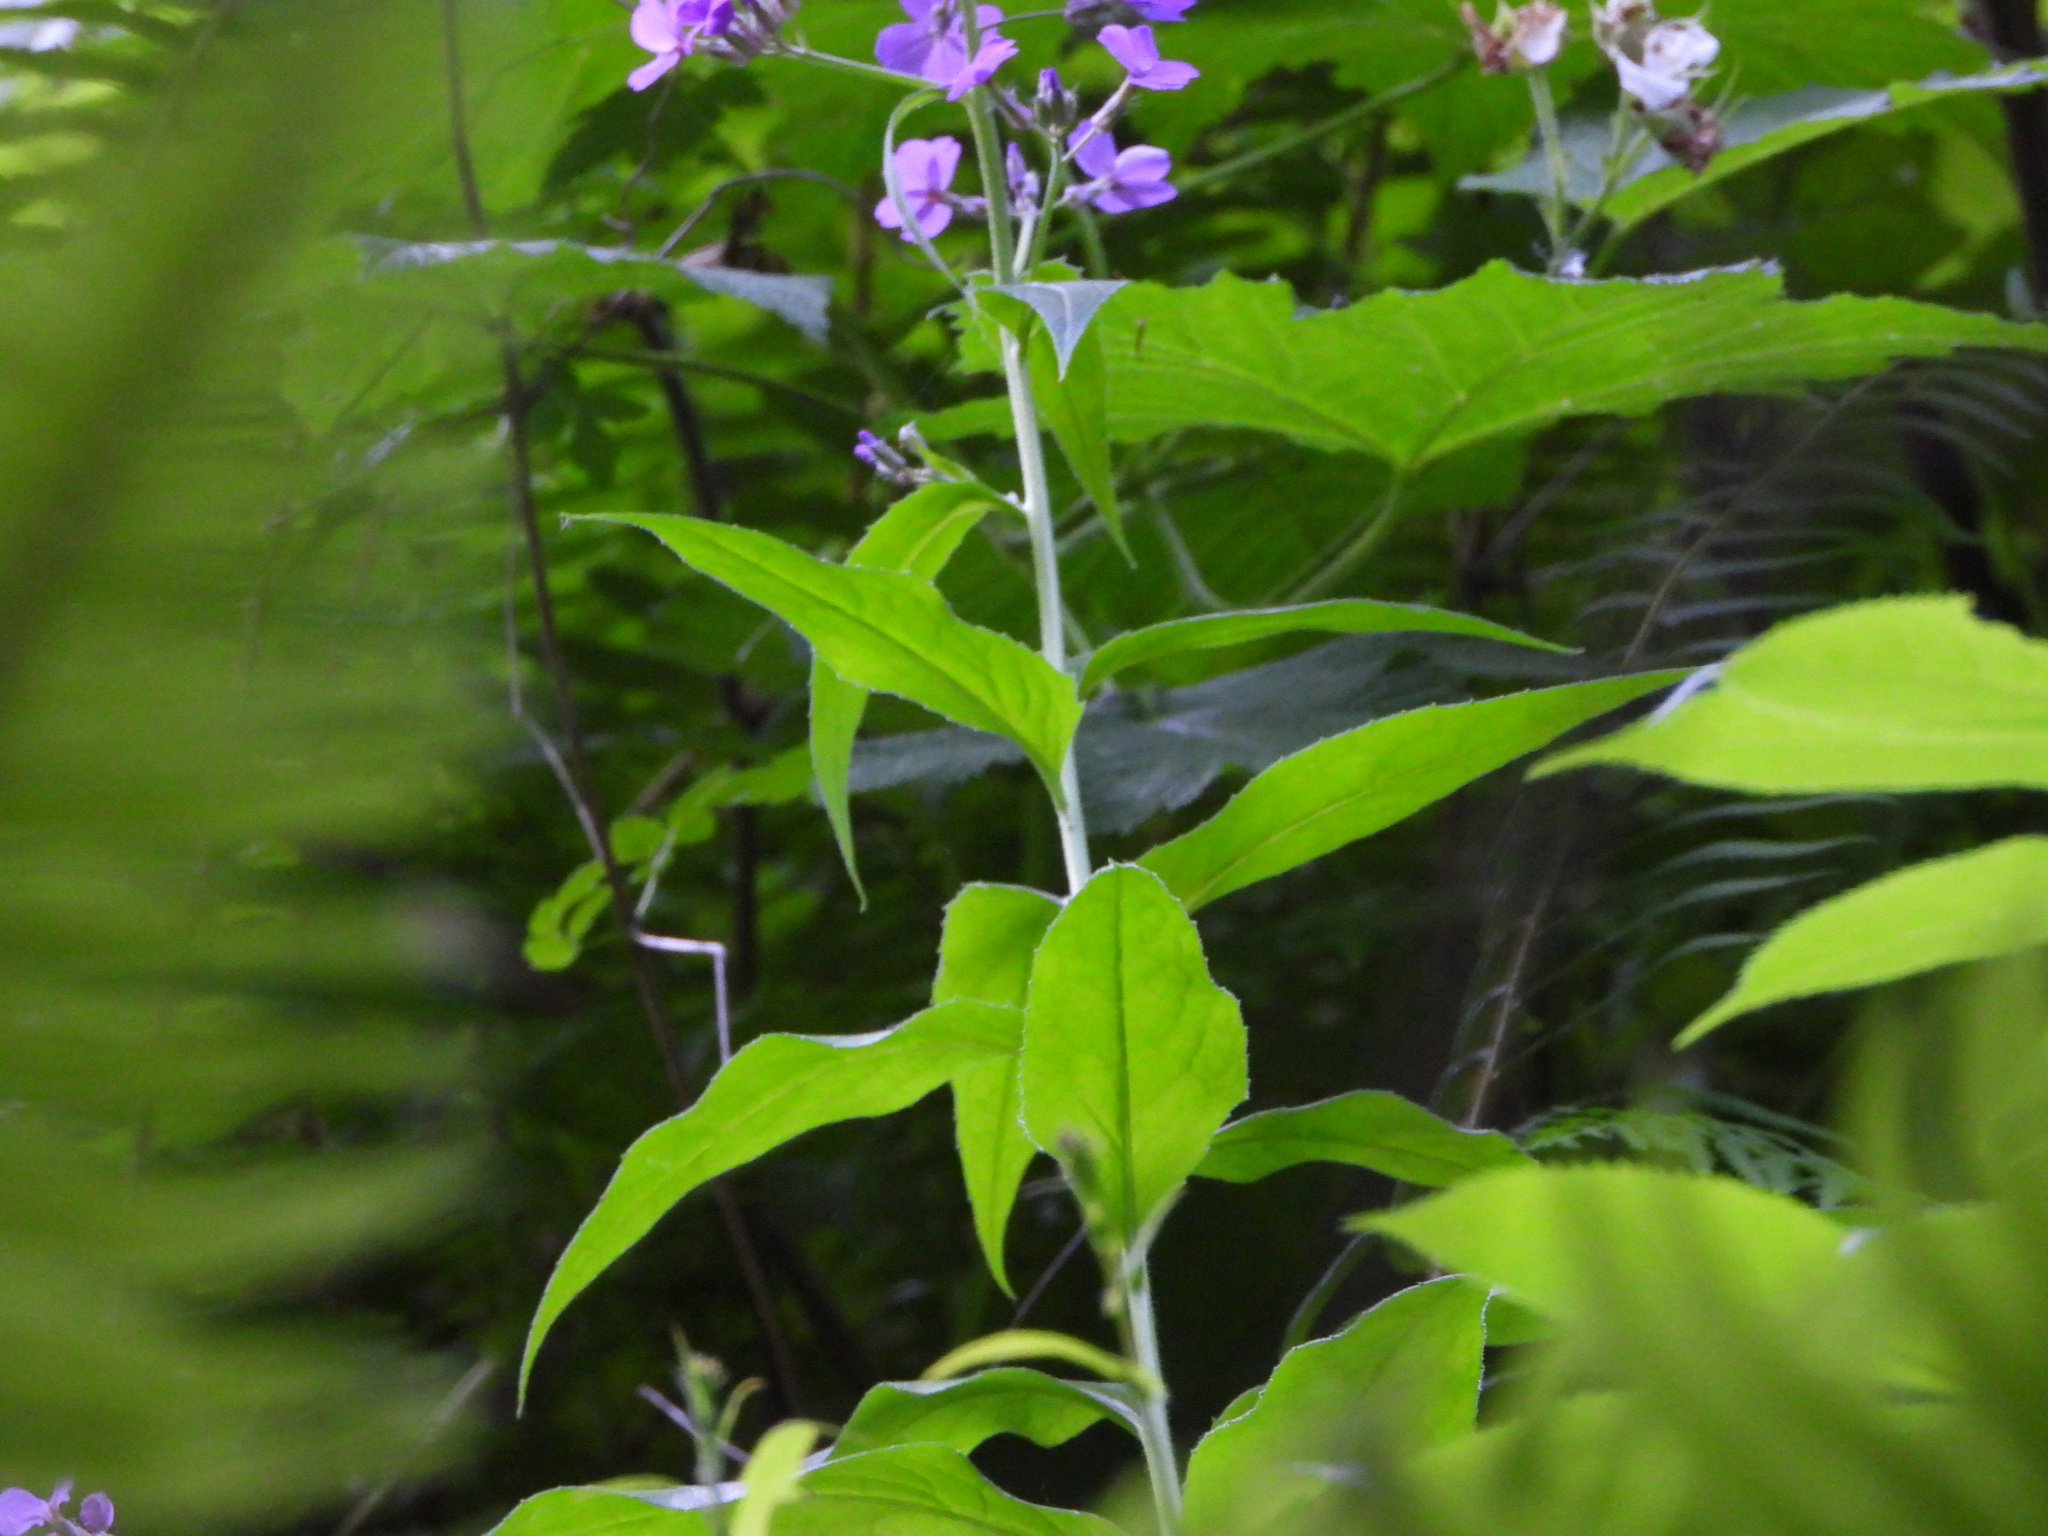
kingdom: Plantae
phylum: Tracheophyta
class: Magnoliopsida
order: Brassicales
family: Brassicaceae
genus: Hesperis
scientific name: Hesperis matronalis
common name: Dame's-violet
